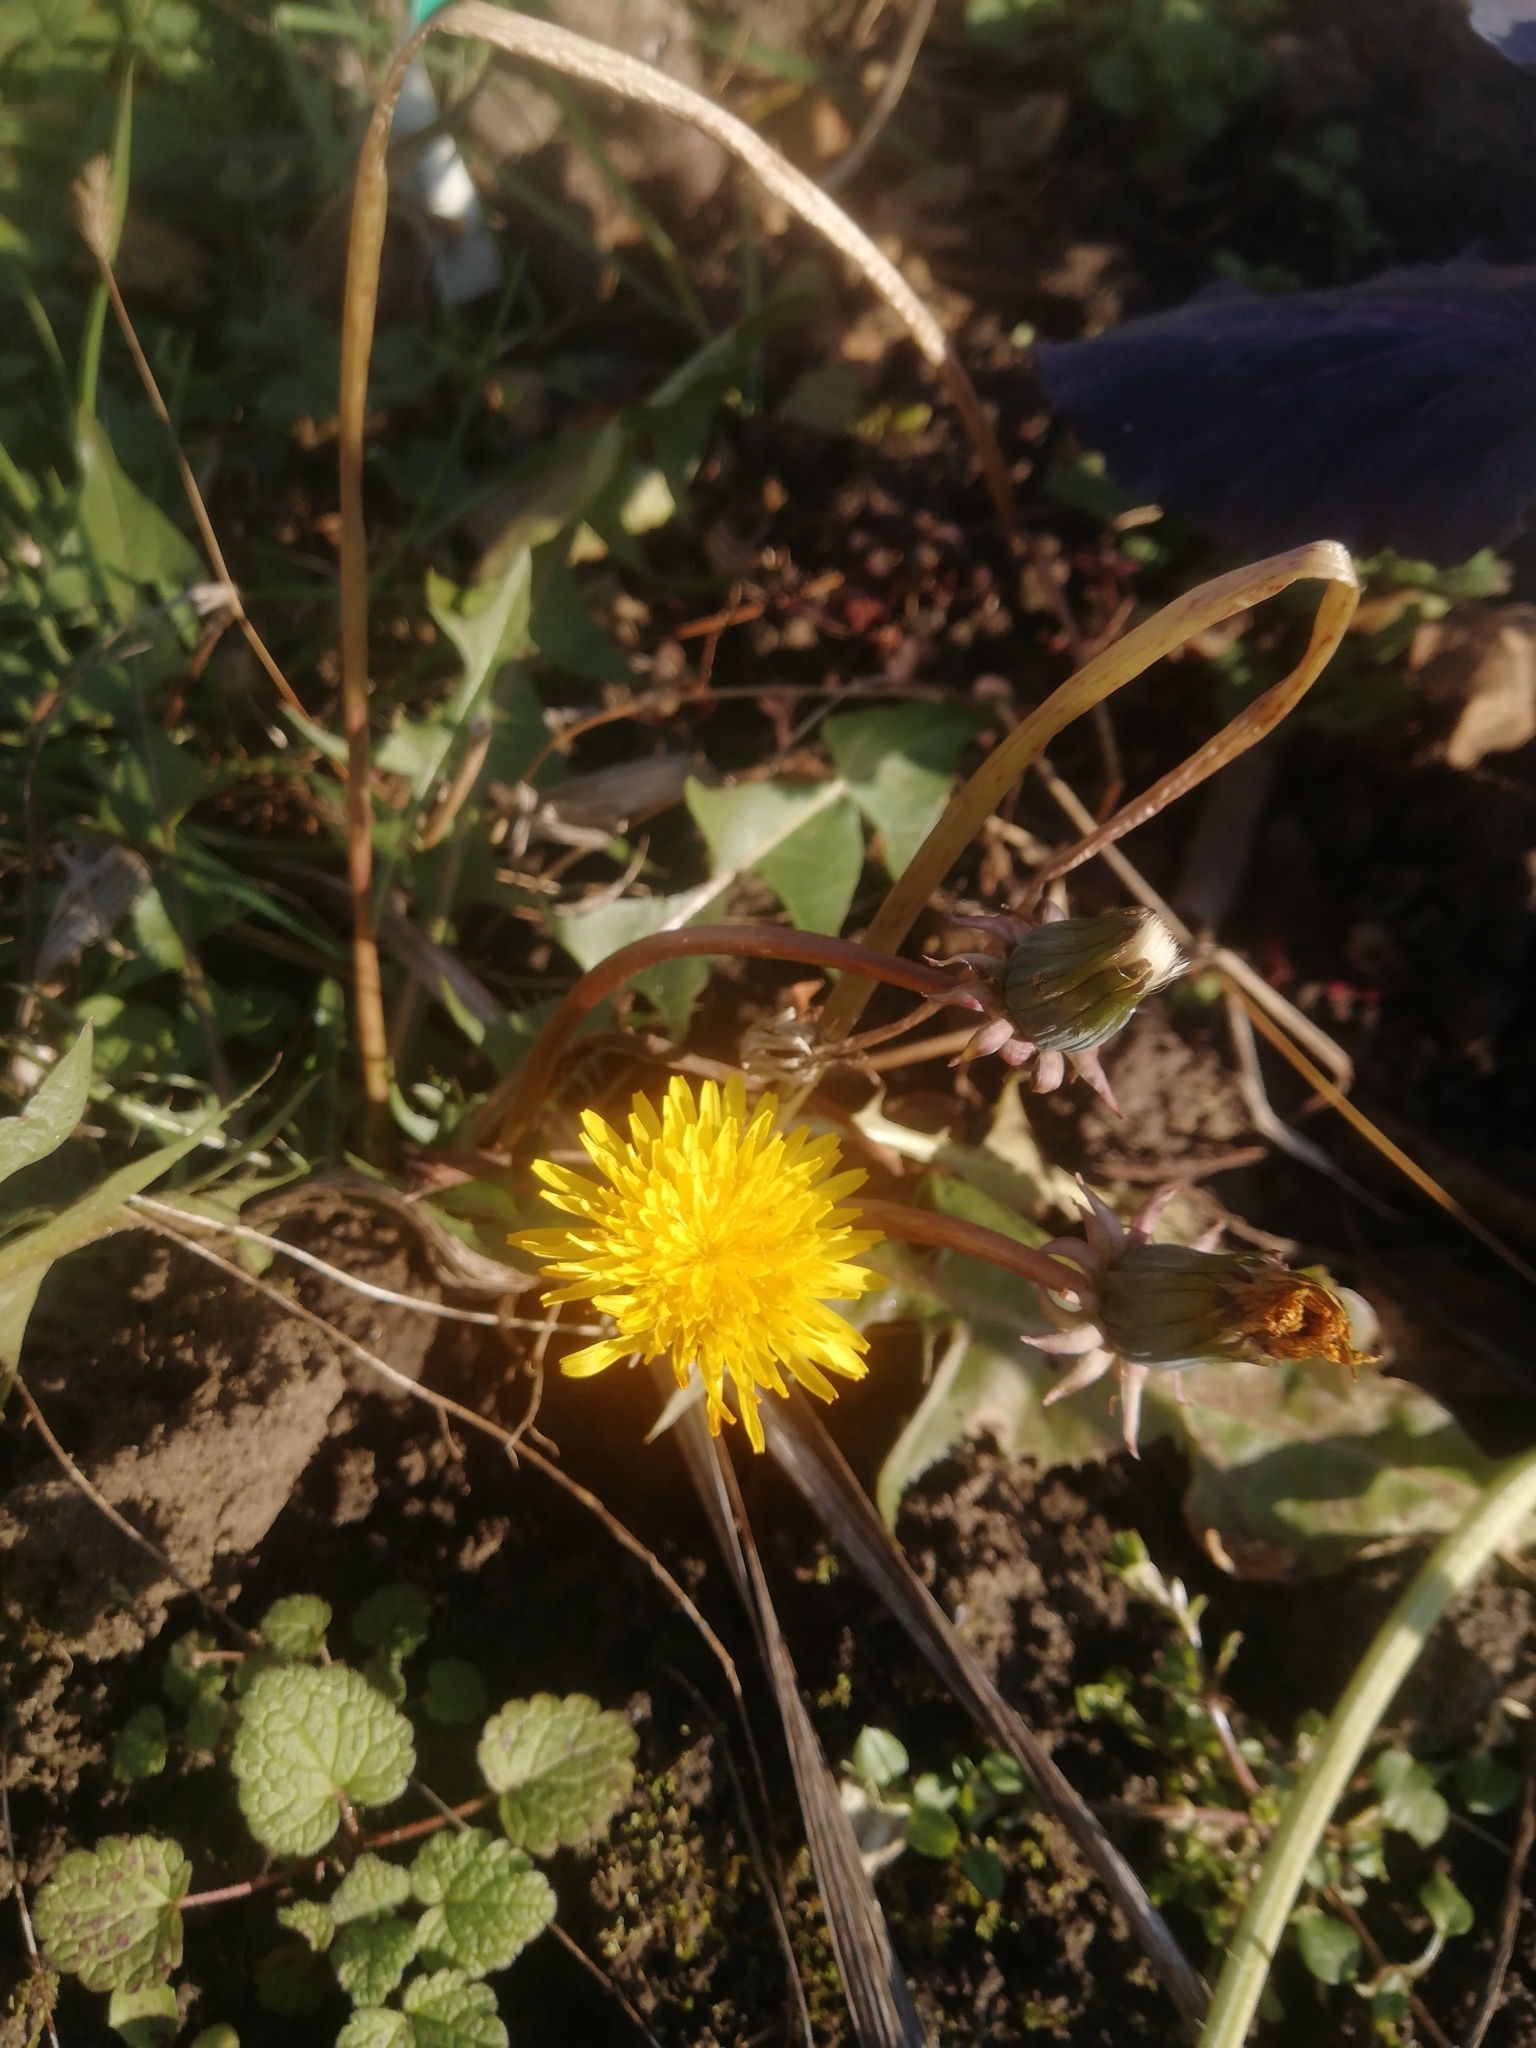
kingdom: Plantae
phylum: Tracheophyta
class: Magnoliopsida
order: Asterales
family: Asteraceae
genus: Taraxacum
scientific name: Taraxacum officinale
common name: Common dandelion
